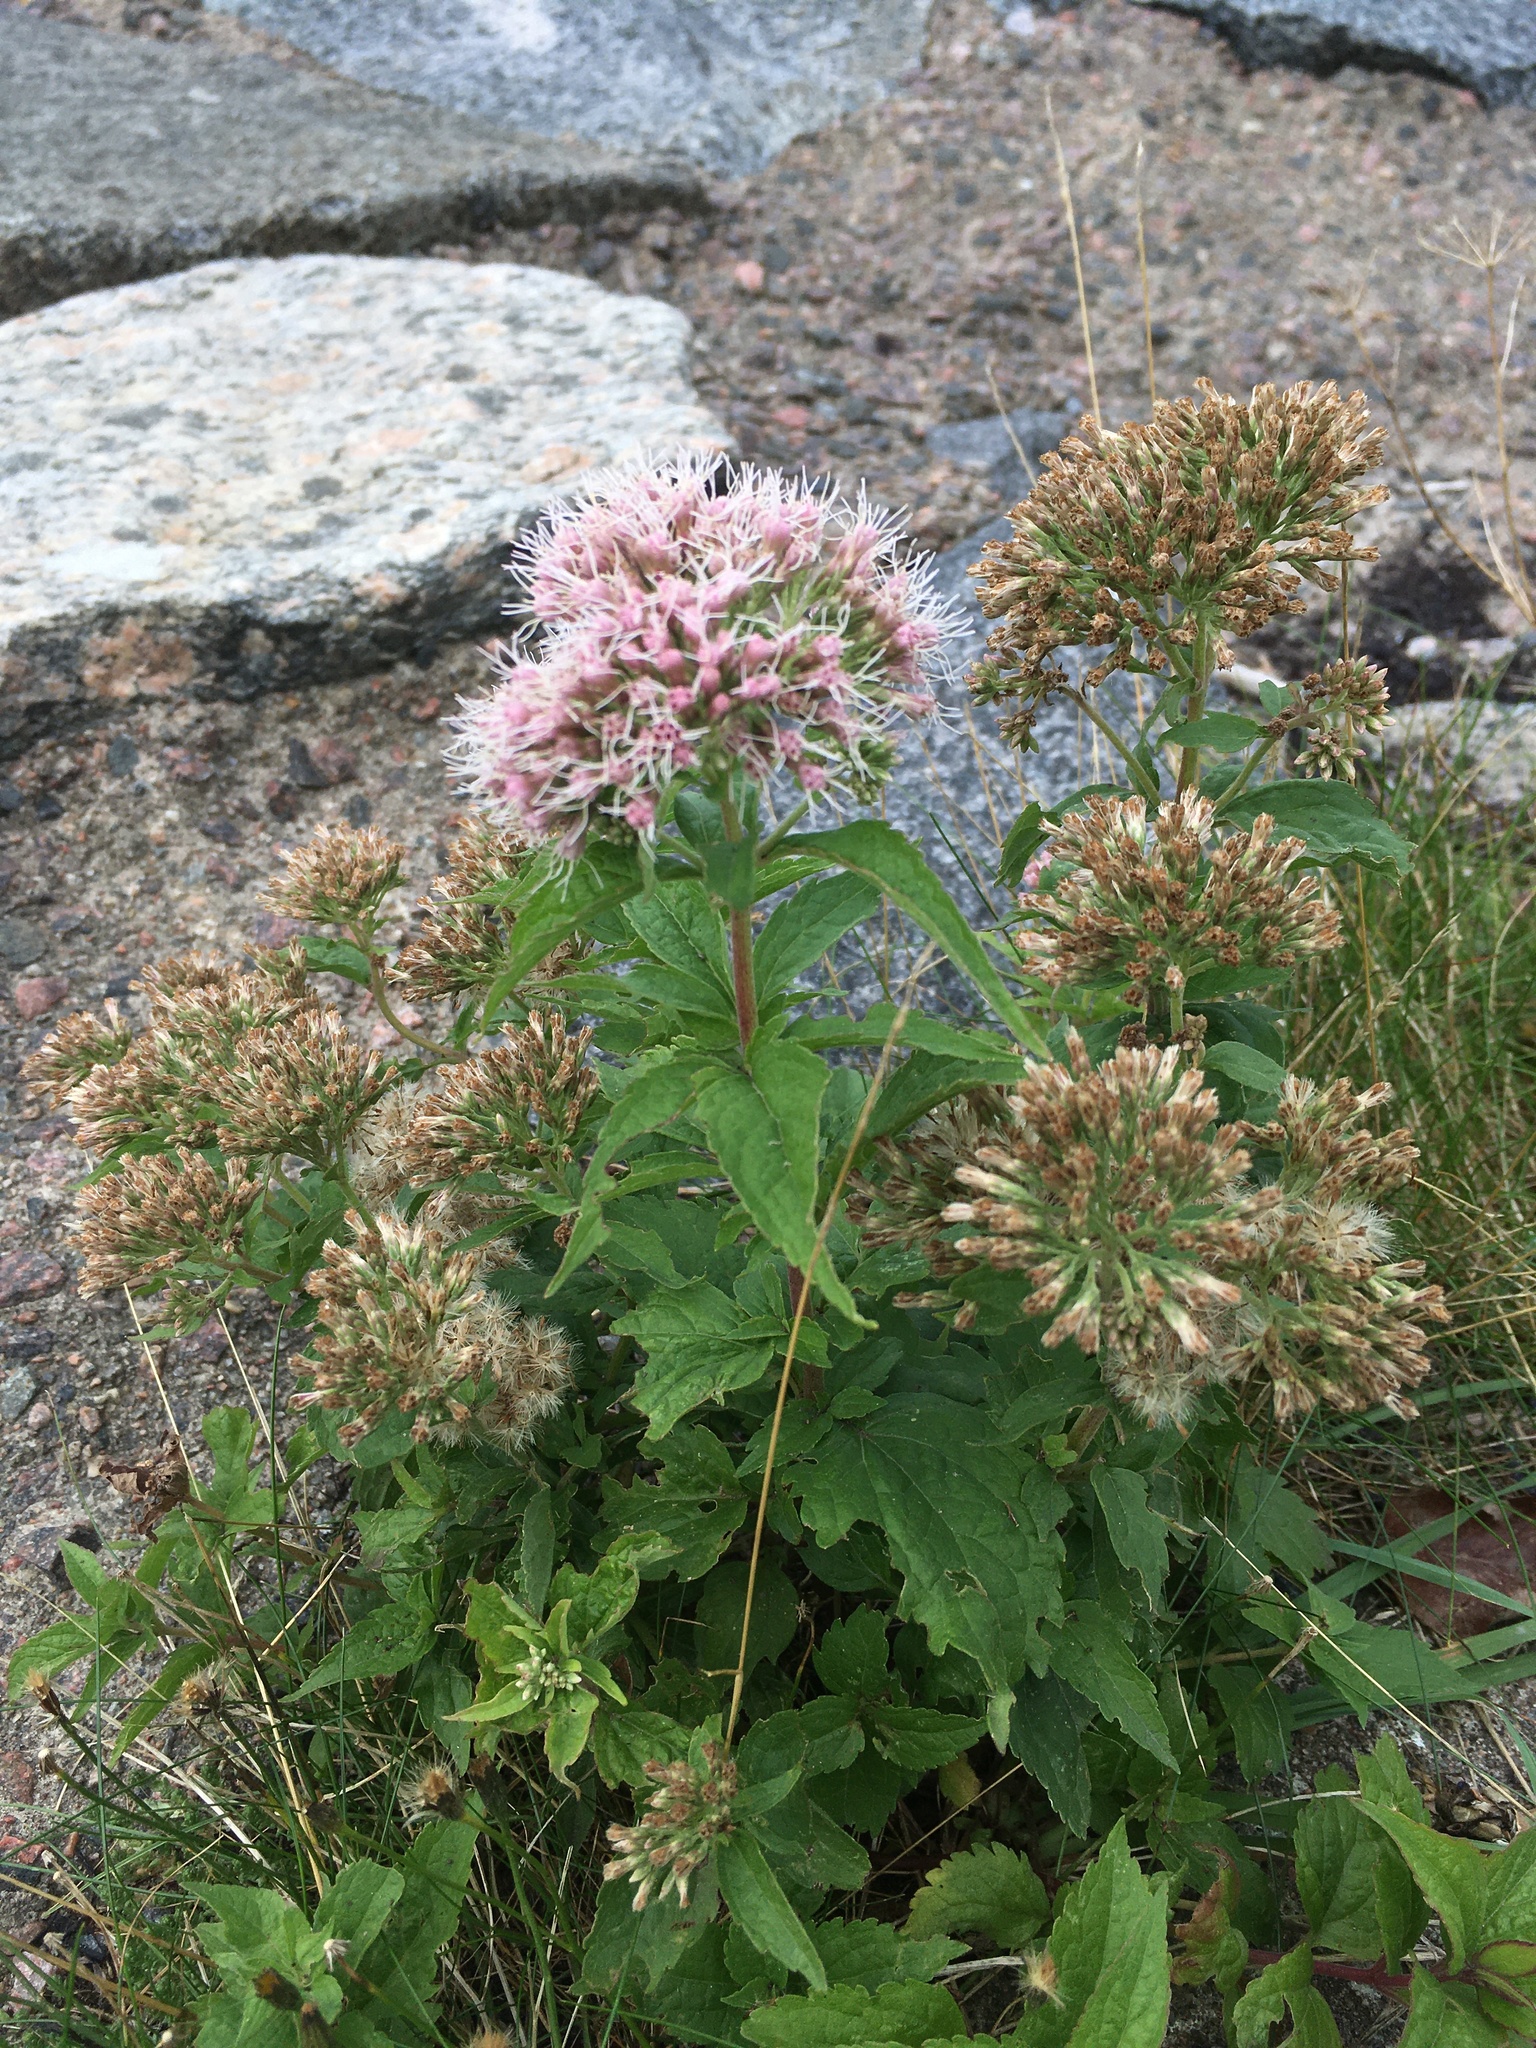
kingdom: Plantae
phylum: Tracheophyta
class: Magnoliopsida
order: Asterales
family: Asteraceae
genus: Eupatorium
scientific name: Eupatorium cannabinum
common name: Hemp-agrimony
